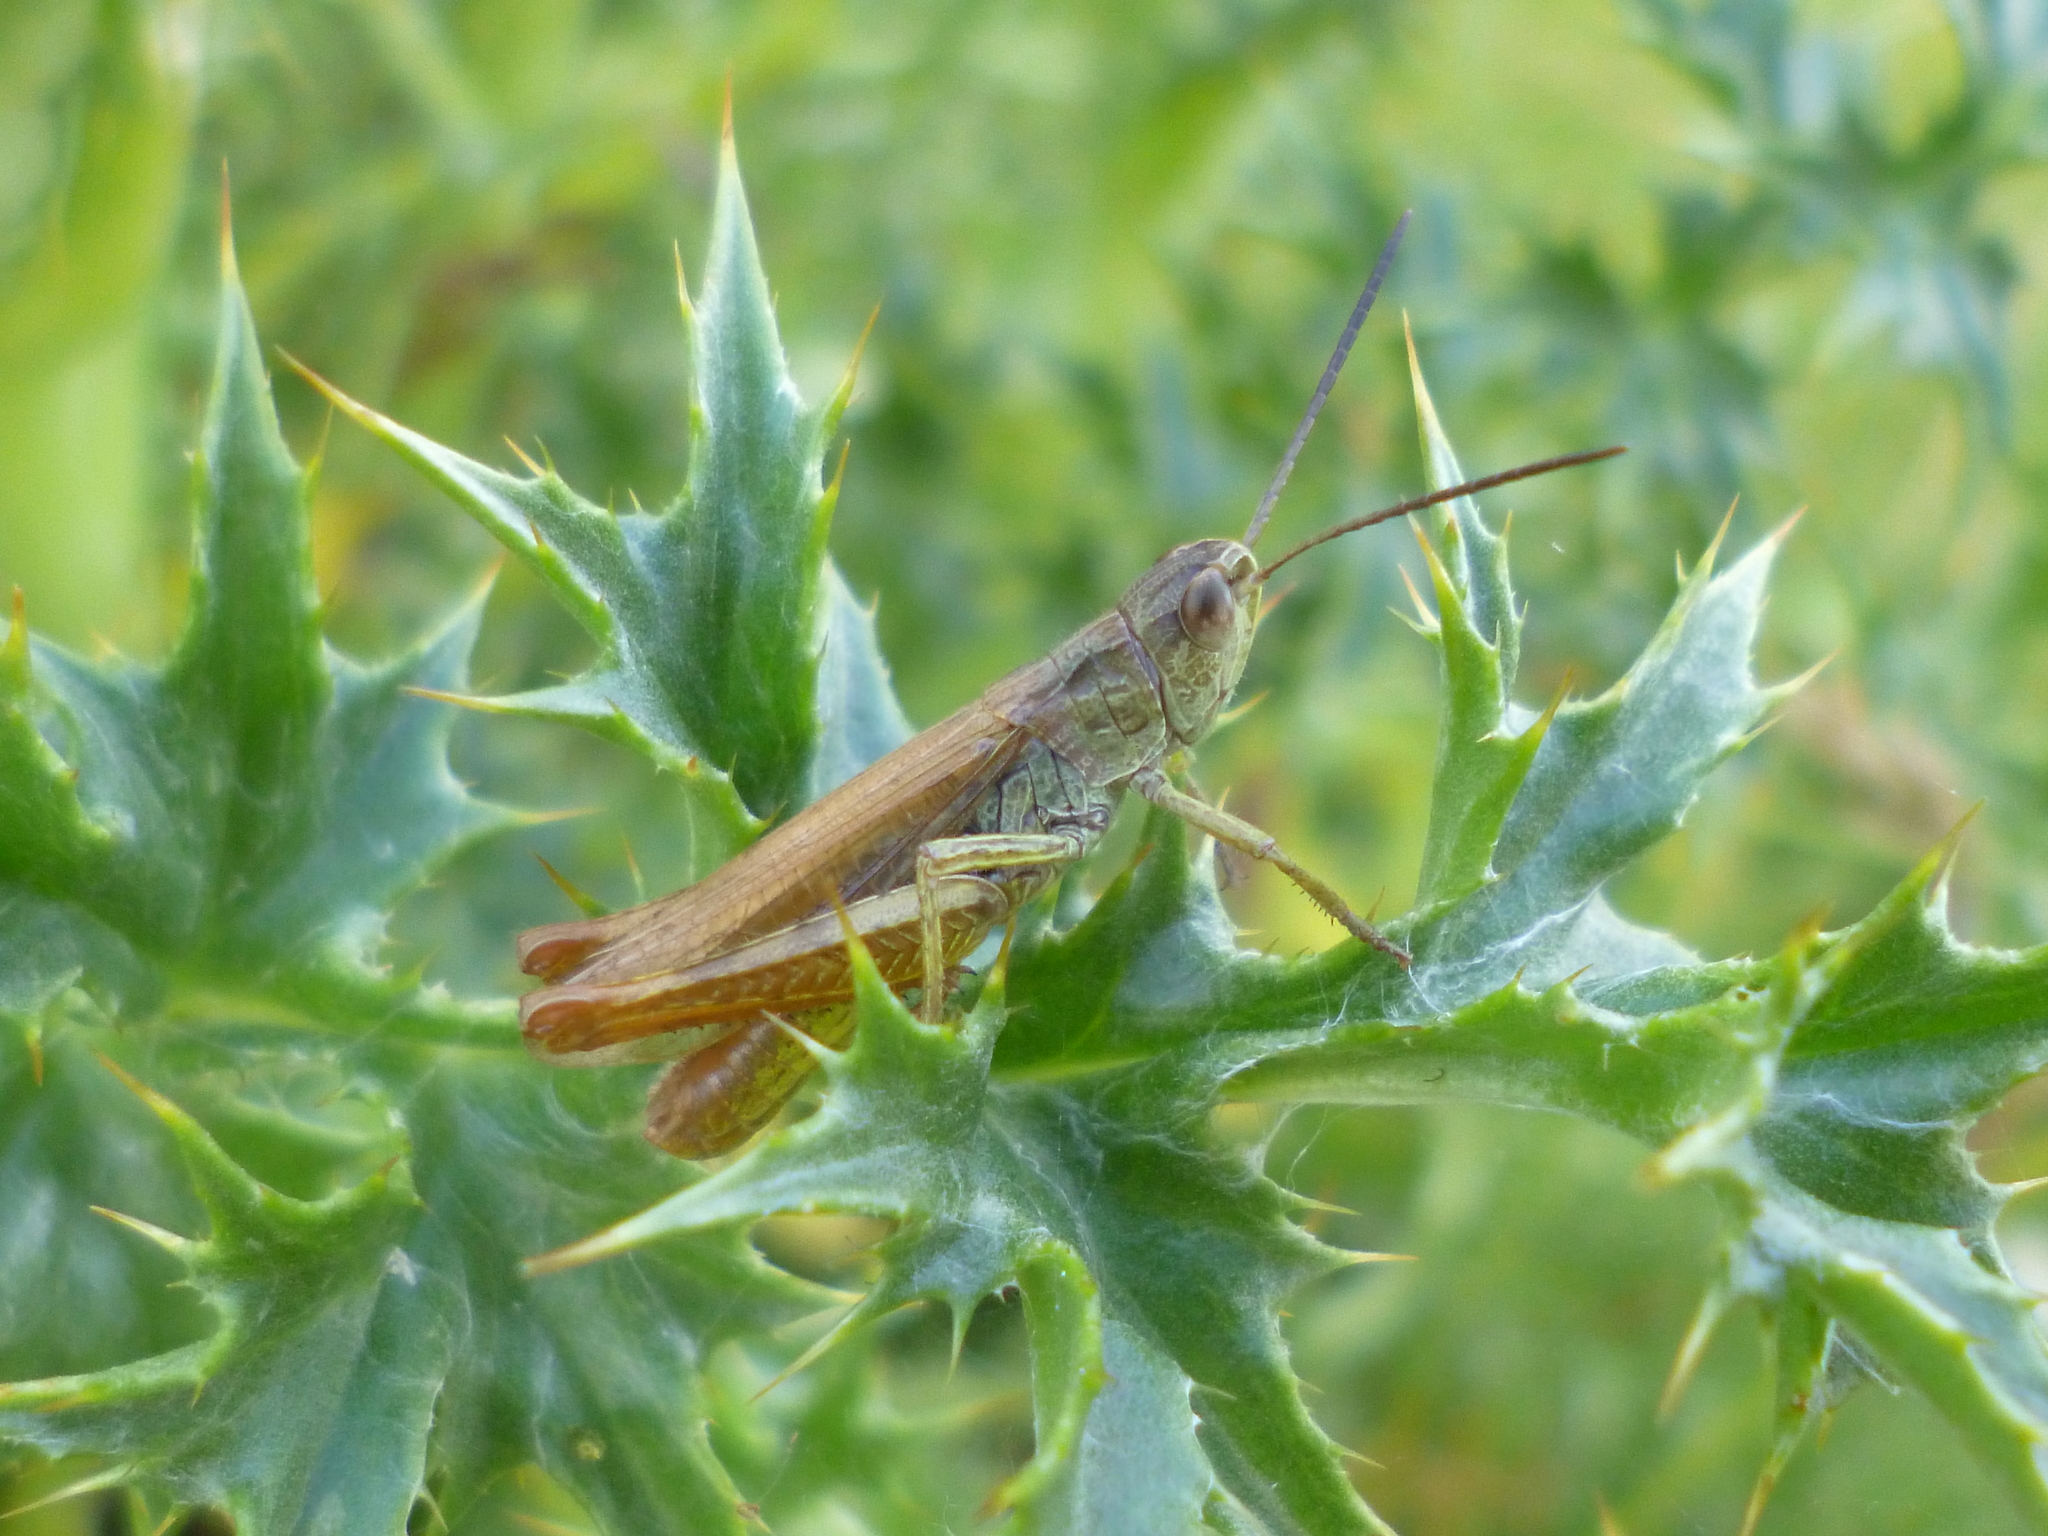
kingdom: Animalia
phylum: Arthropoda
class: Insecta
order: Orthoptera
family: Acrididae
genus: Chorthippus
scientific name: Chorthippus apricarius
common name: Upland field grasshopper
